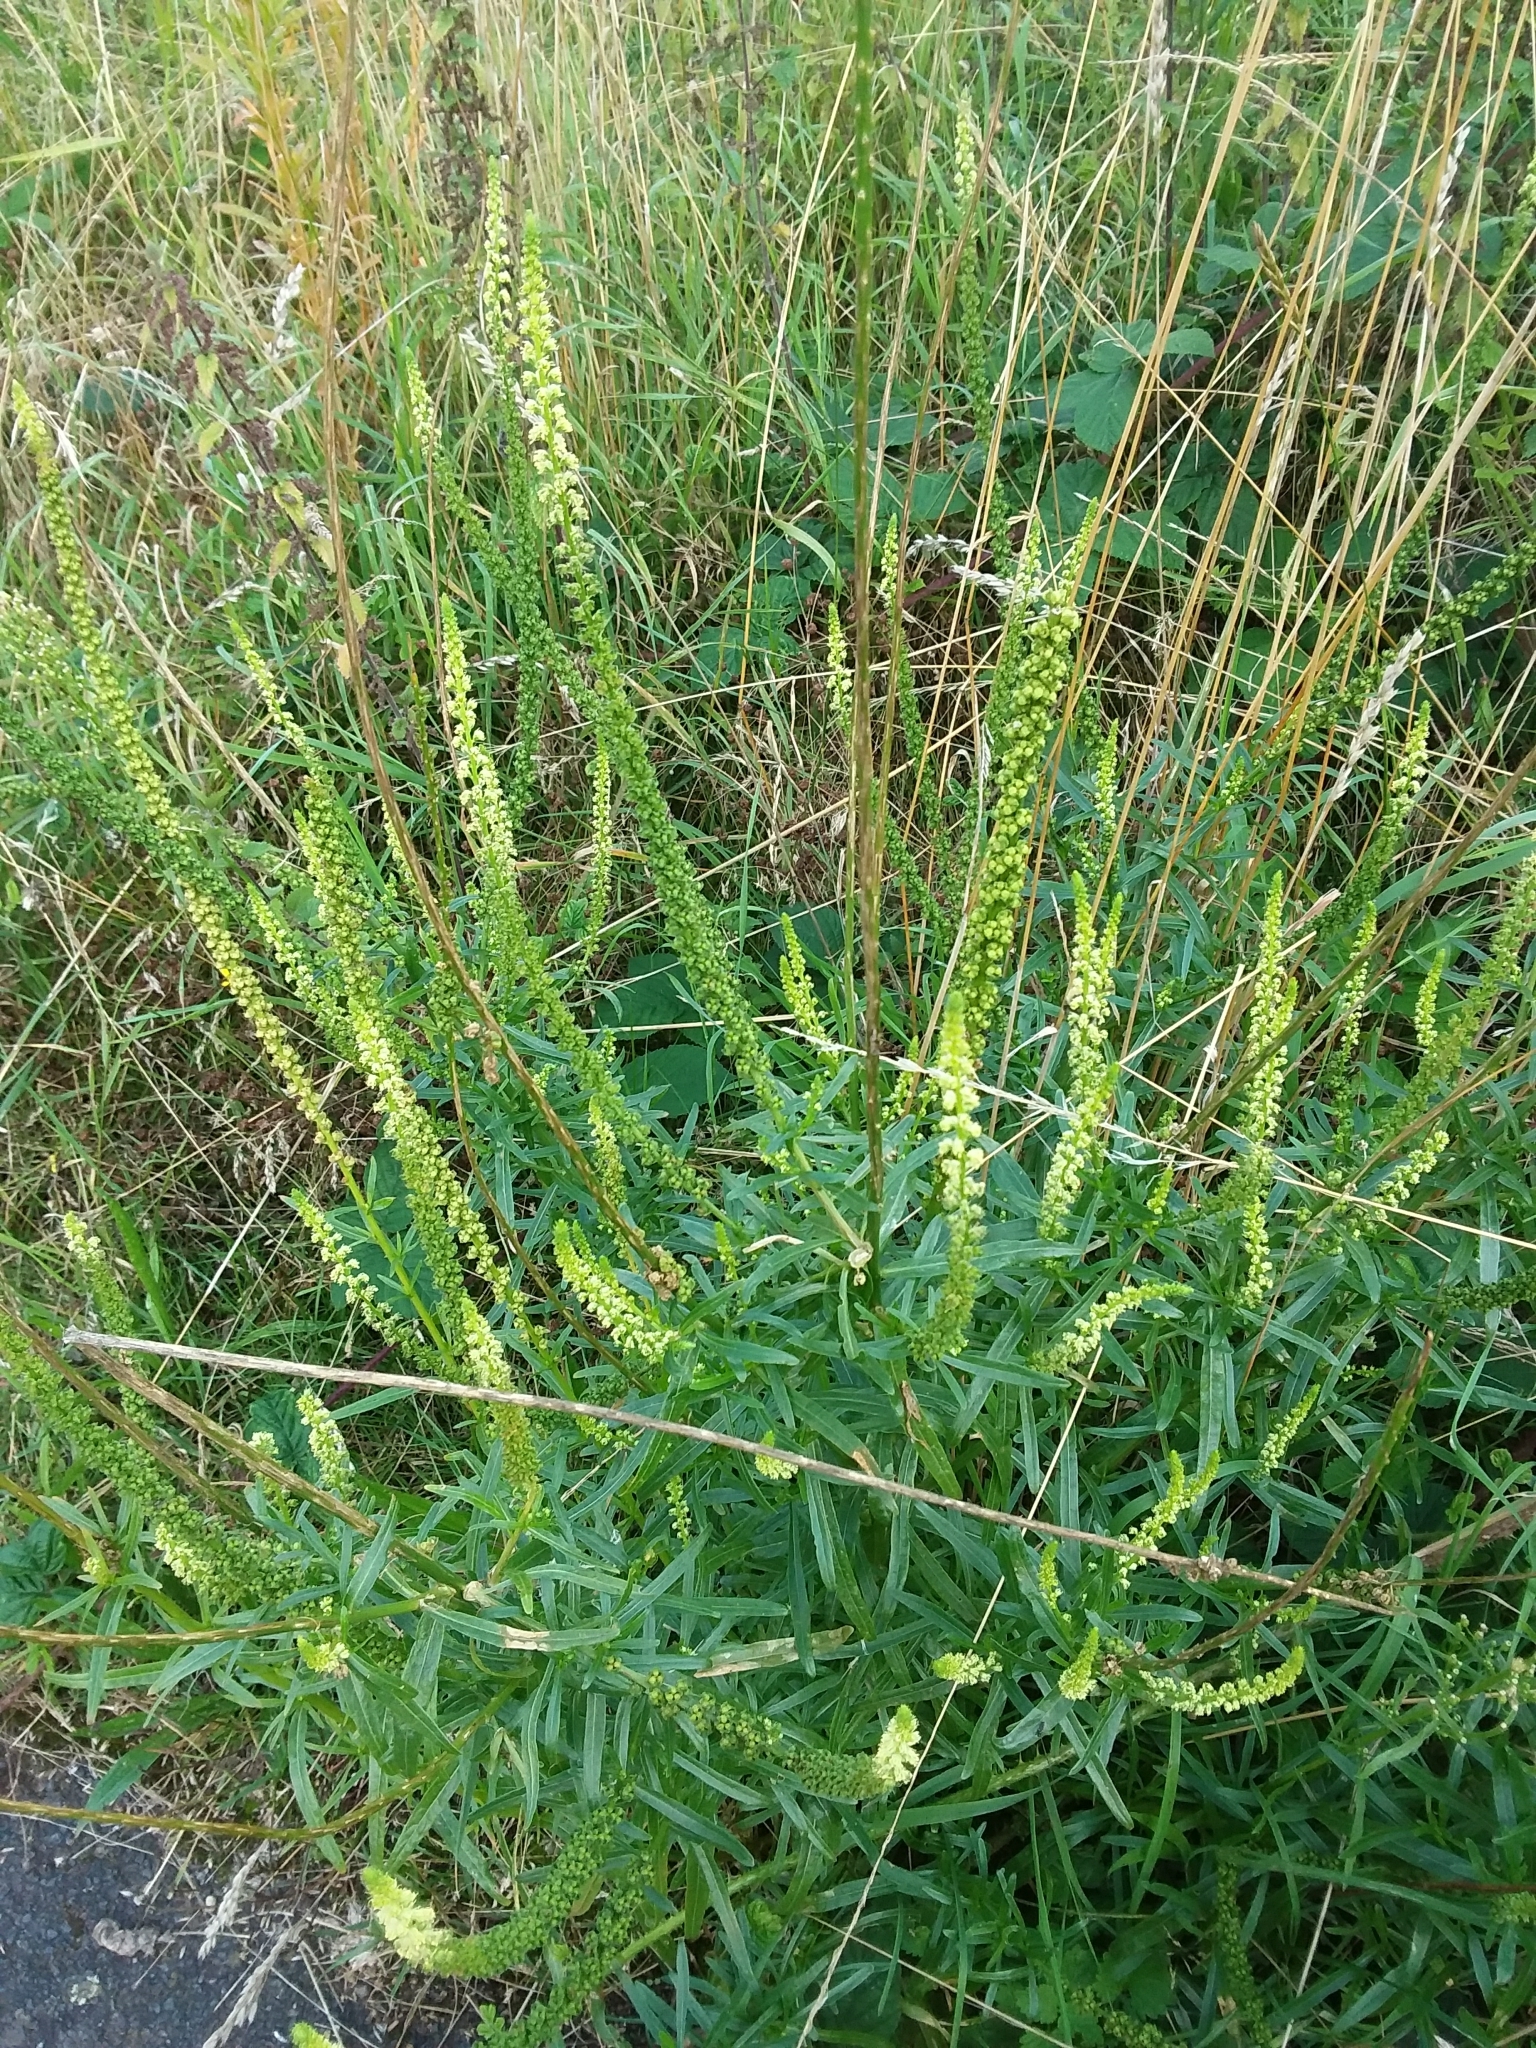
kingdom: Plantae
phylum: Tracheophyta
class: Magnoliopsida
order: Brassicales
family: Resedaceae
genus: Reseda
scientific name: Reseda luteola
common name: Weld
